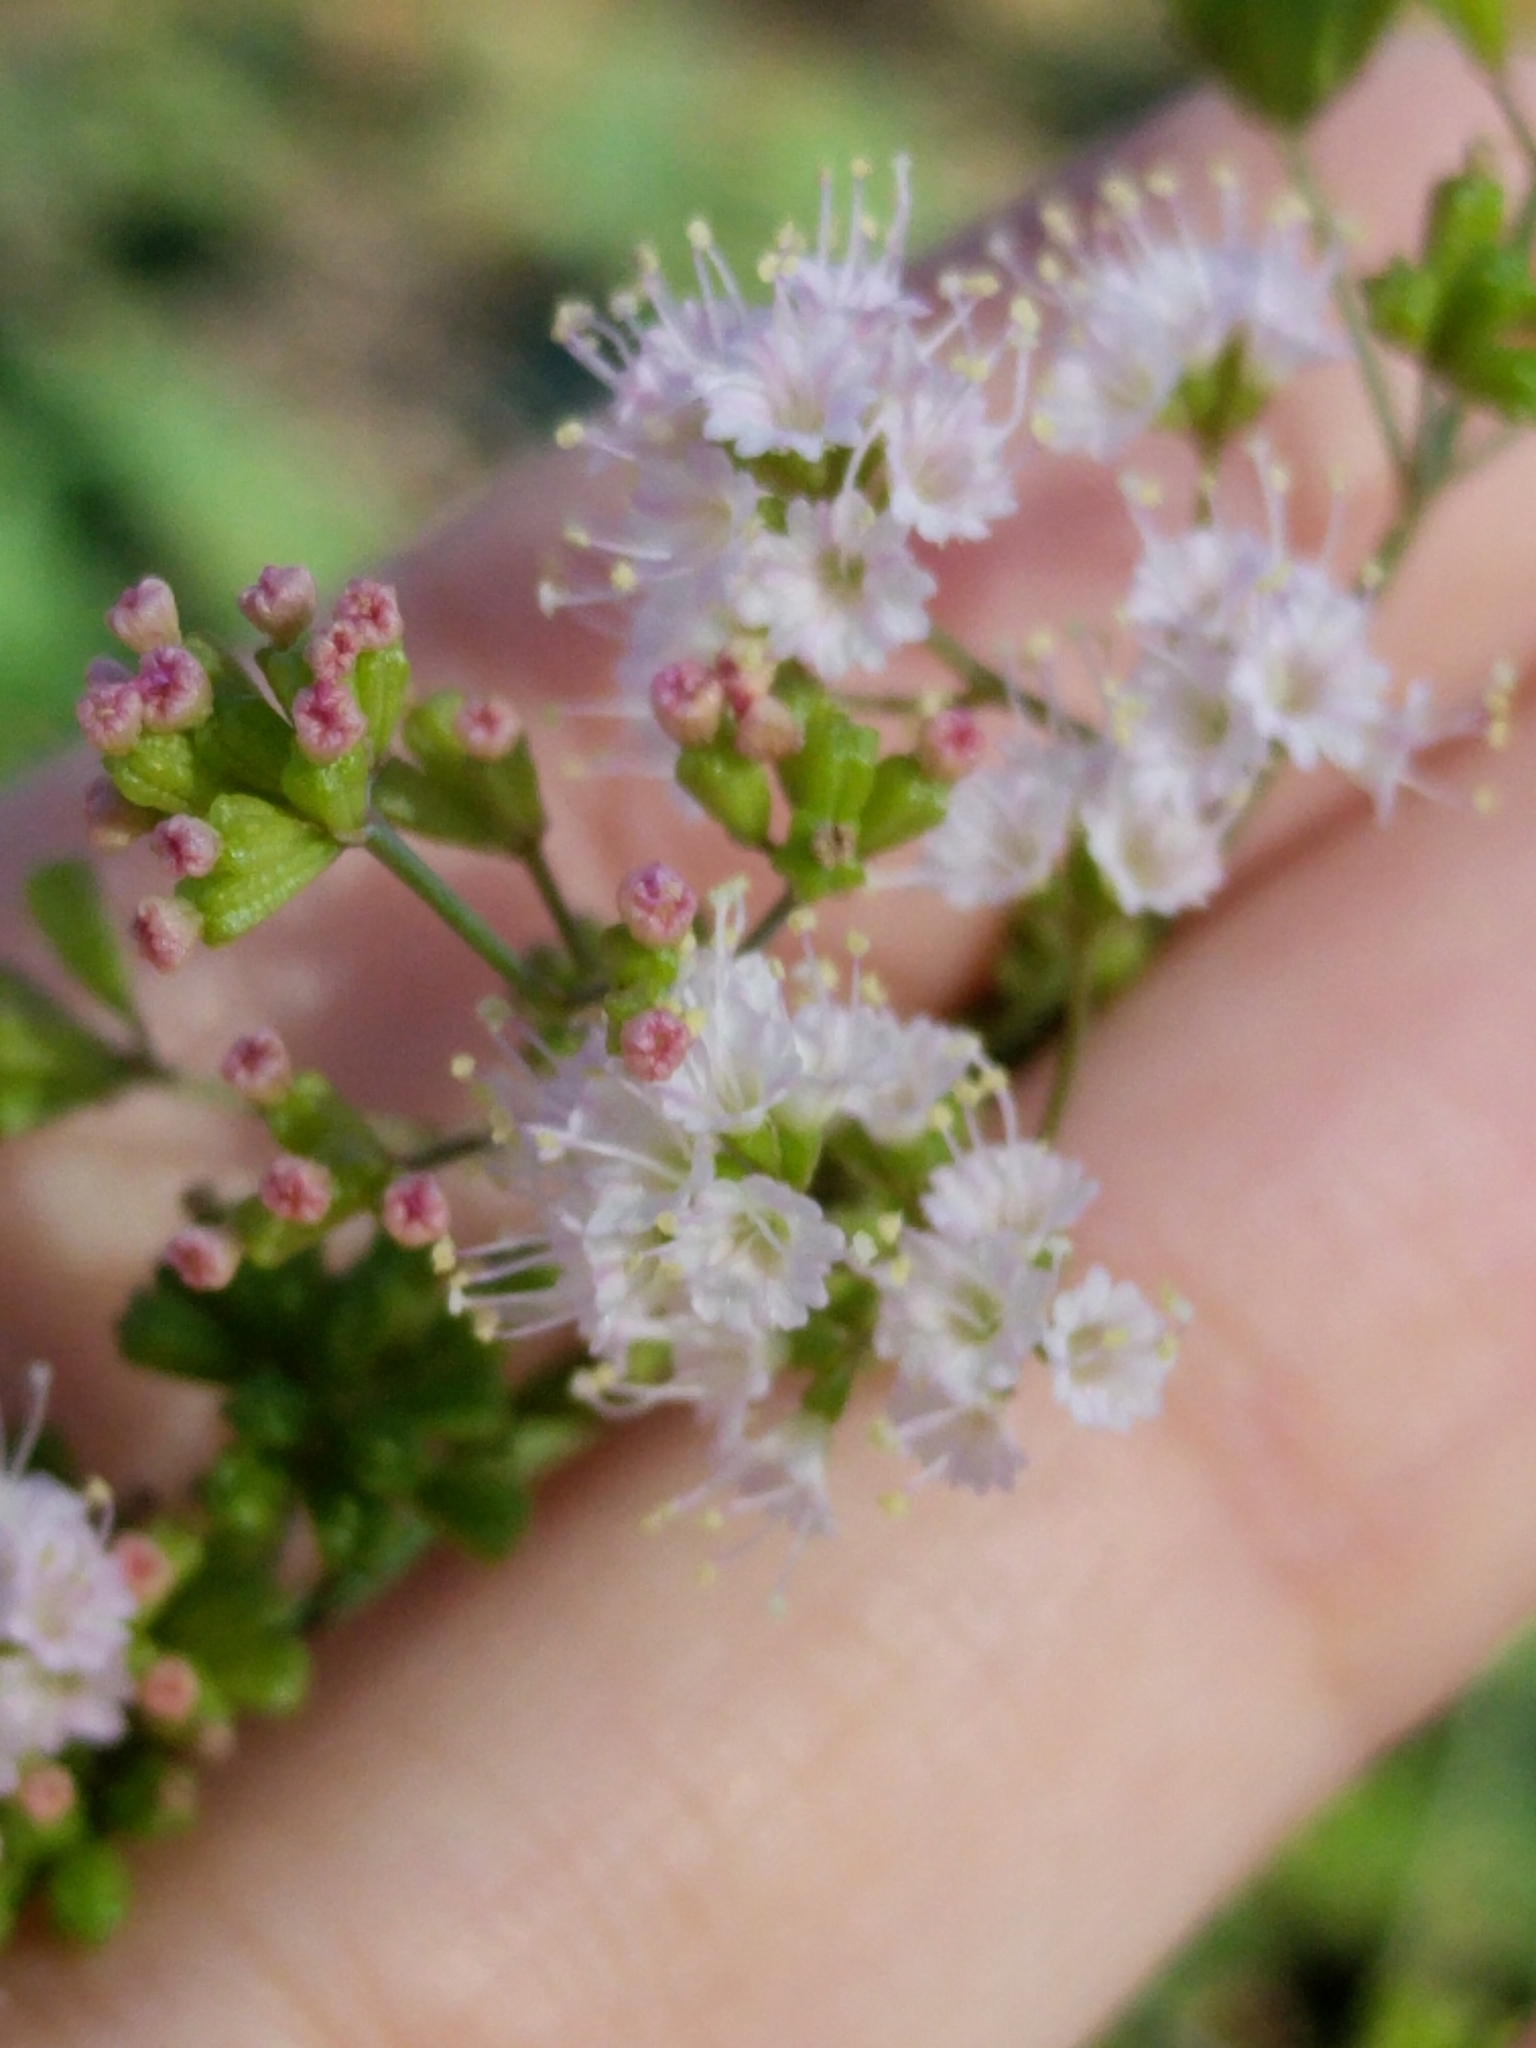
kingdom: Plantae
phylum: Tracheophyta
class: Magnoliopsida
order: Caryophyllales
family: Nyctaginaceae
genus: Boerhavia
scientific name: Boerhavia erecta
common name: Erect spiderling
